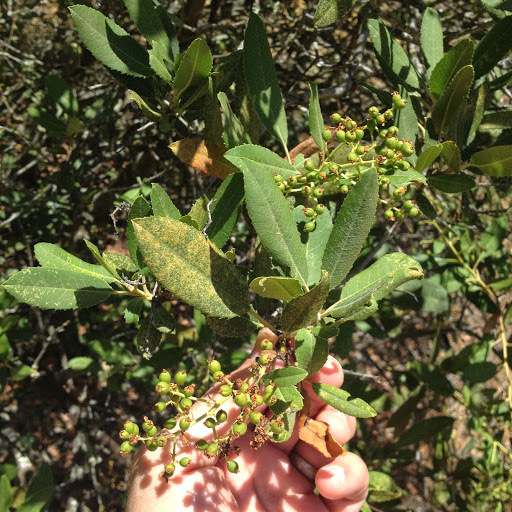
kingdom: Plantae
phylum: Tracheophyta
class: Magnoliopsida
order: Rosales
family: Rosaceae
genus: Heteromeles
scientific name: Heteromeles arbutifolia
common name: California-holly
